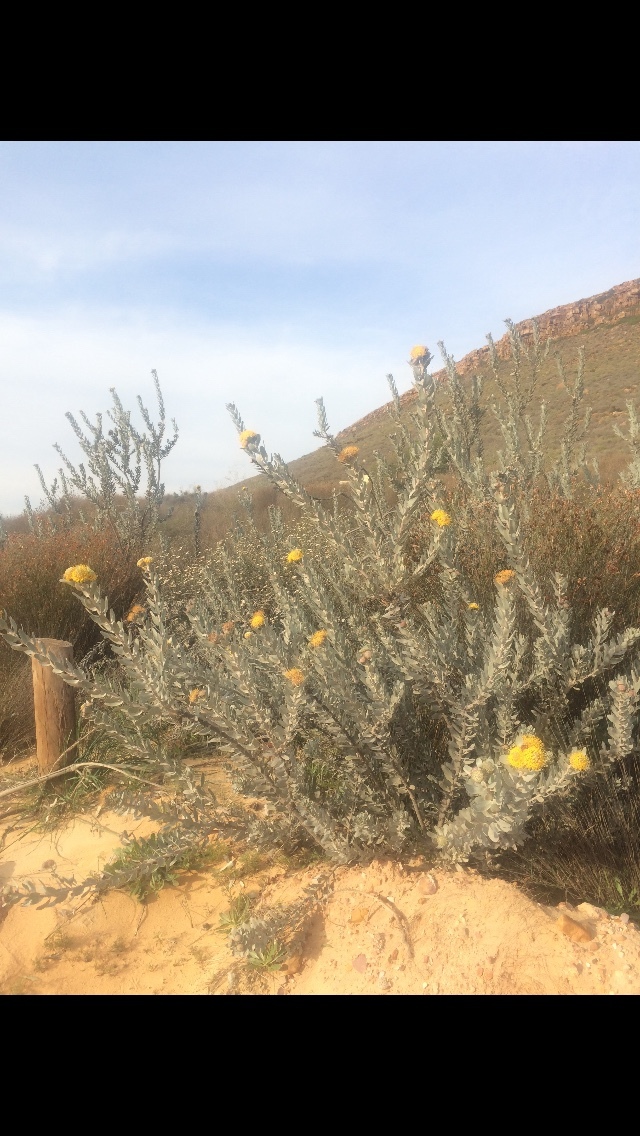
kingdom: Plantae
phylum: Tracheophyta
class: Magnoliopsida
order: Proteales
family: Proteaceae
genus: Leucospermum
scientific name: Leucospermum rodolentum
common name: Pincushion
